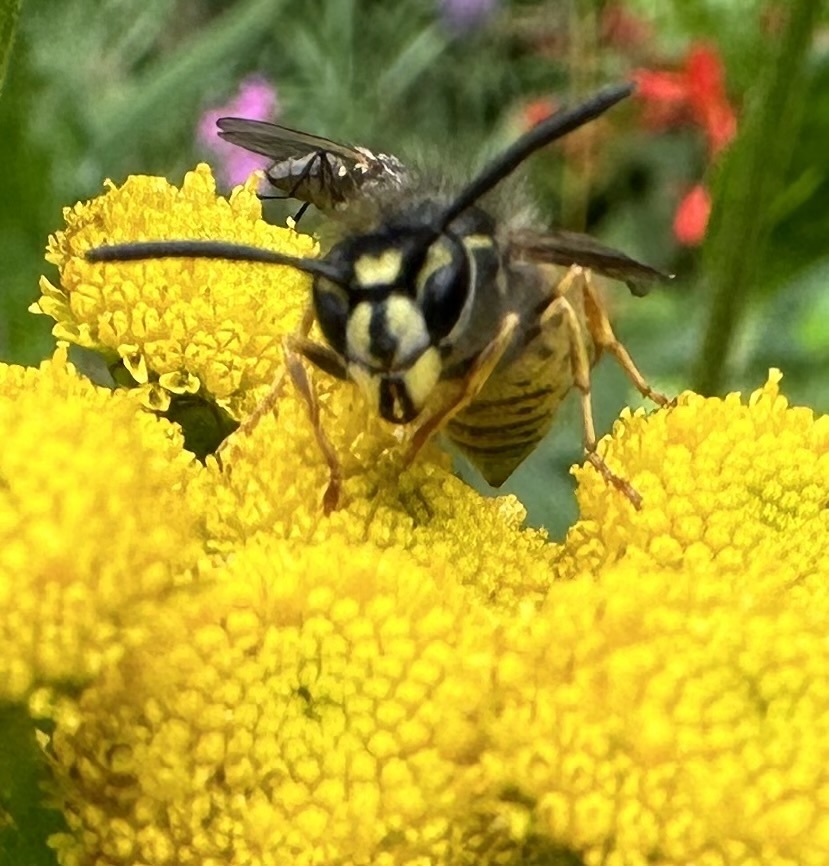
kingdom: Animalia
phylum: Arthropoda
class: Insecta
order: Hymenoptera
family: Vespidae
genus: Vespula
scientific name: Vespula vulgaris
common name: Common wasp
